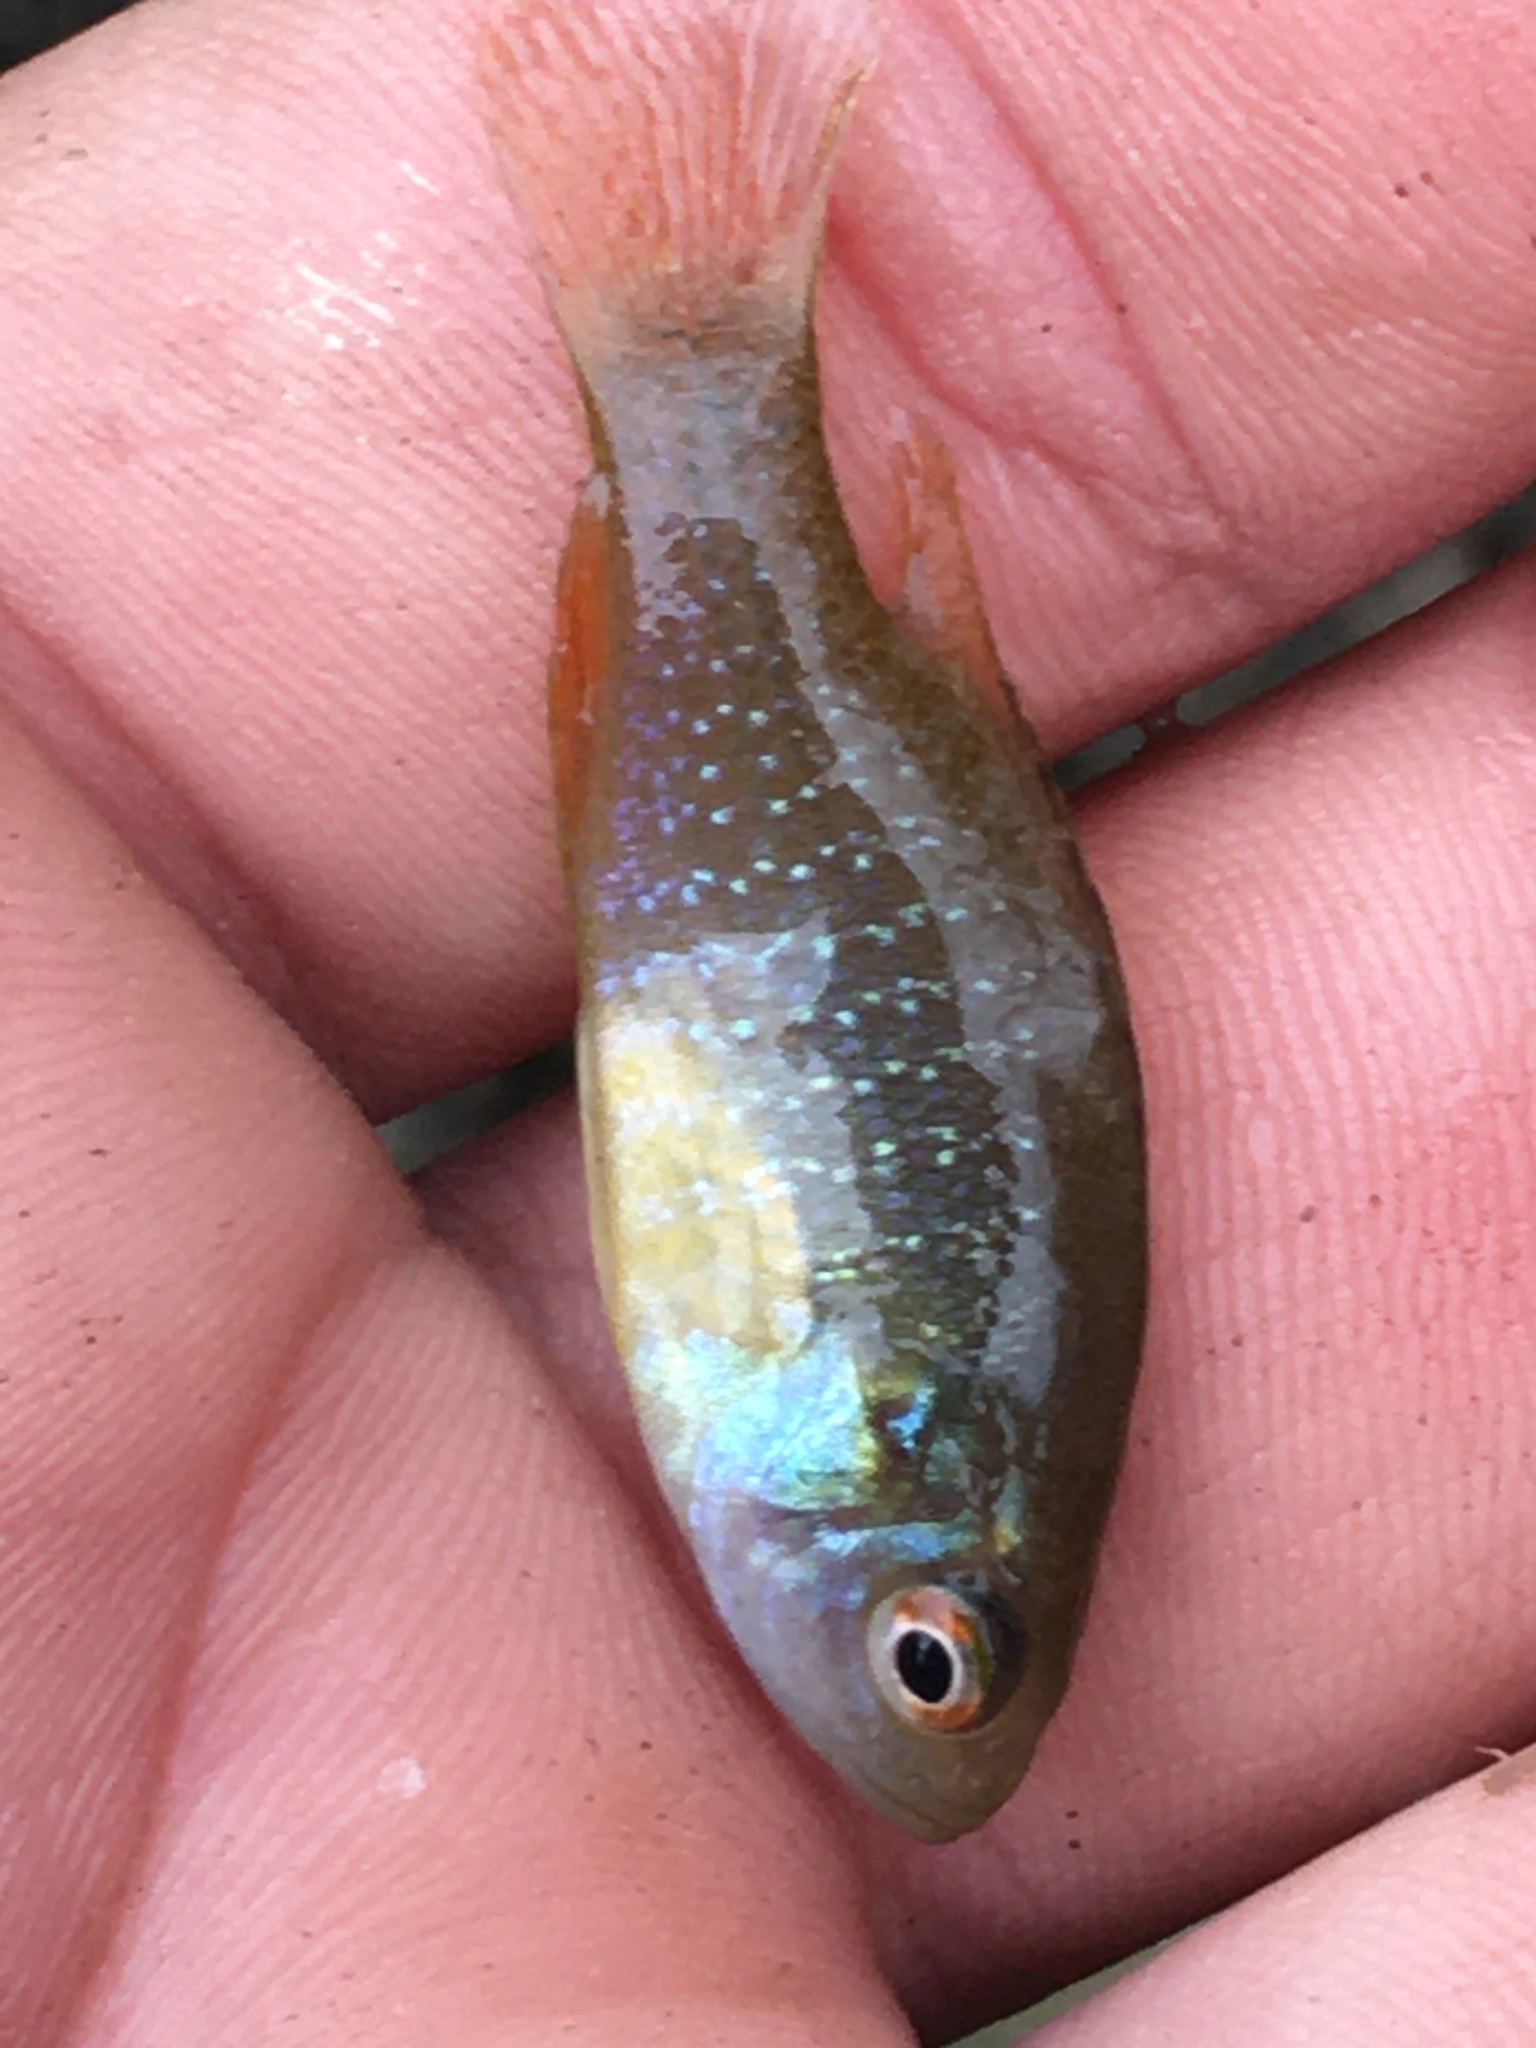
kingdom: Animalia
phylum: Chordata
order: Perciformes
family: Centrarchidae
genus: Lepomis
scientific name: Lepomis cyanellus
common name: Green sunfish
